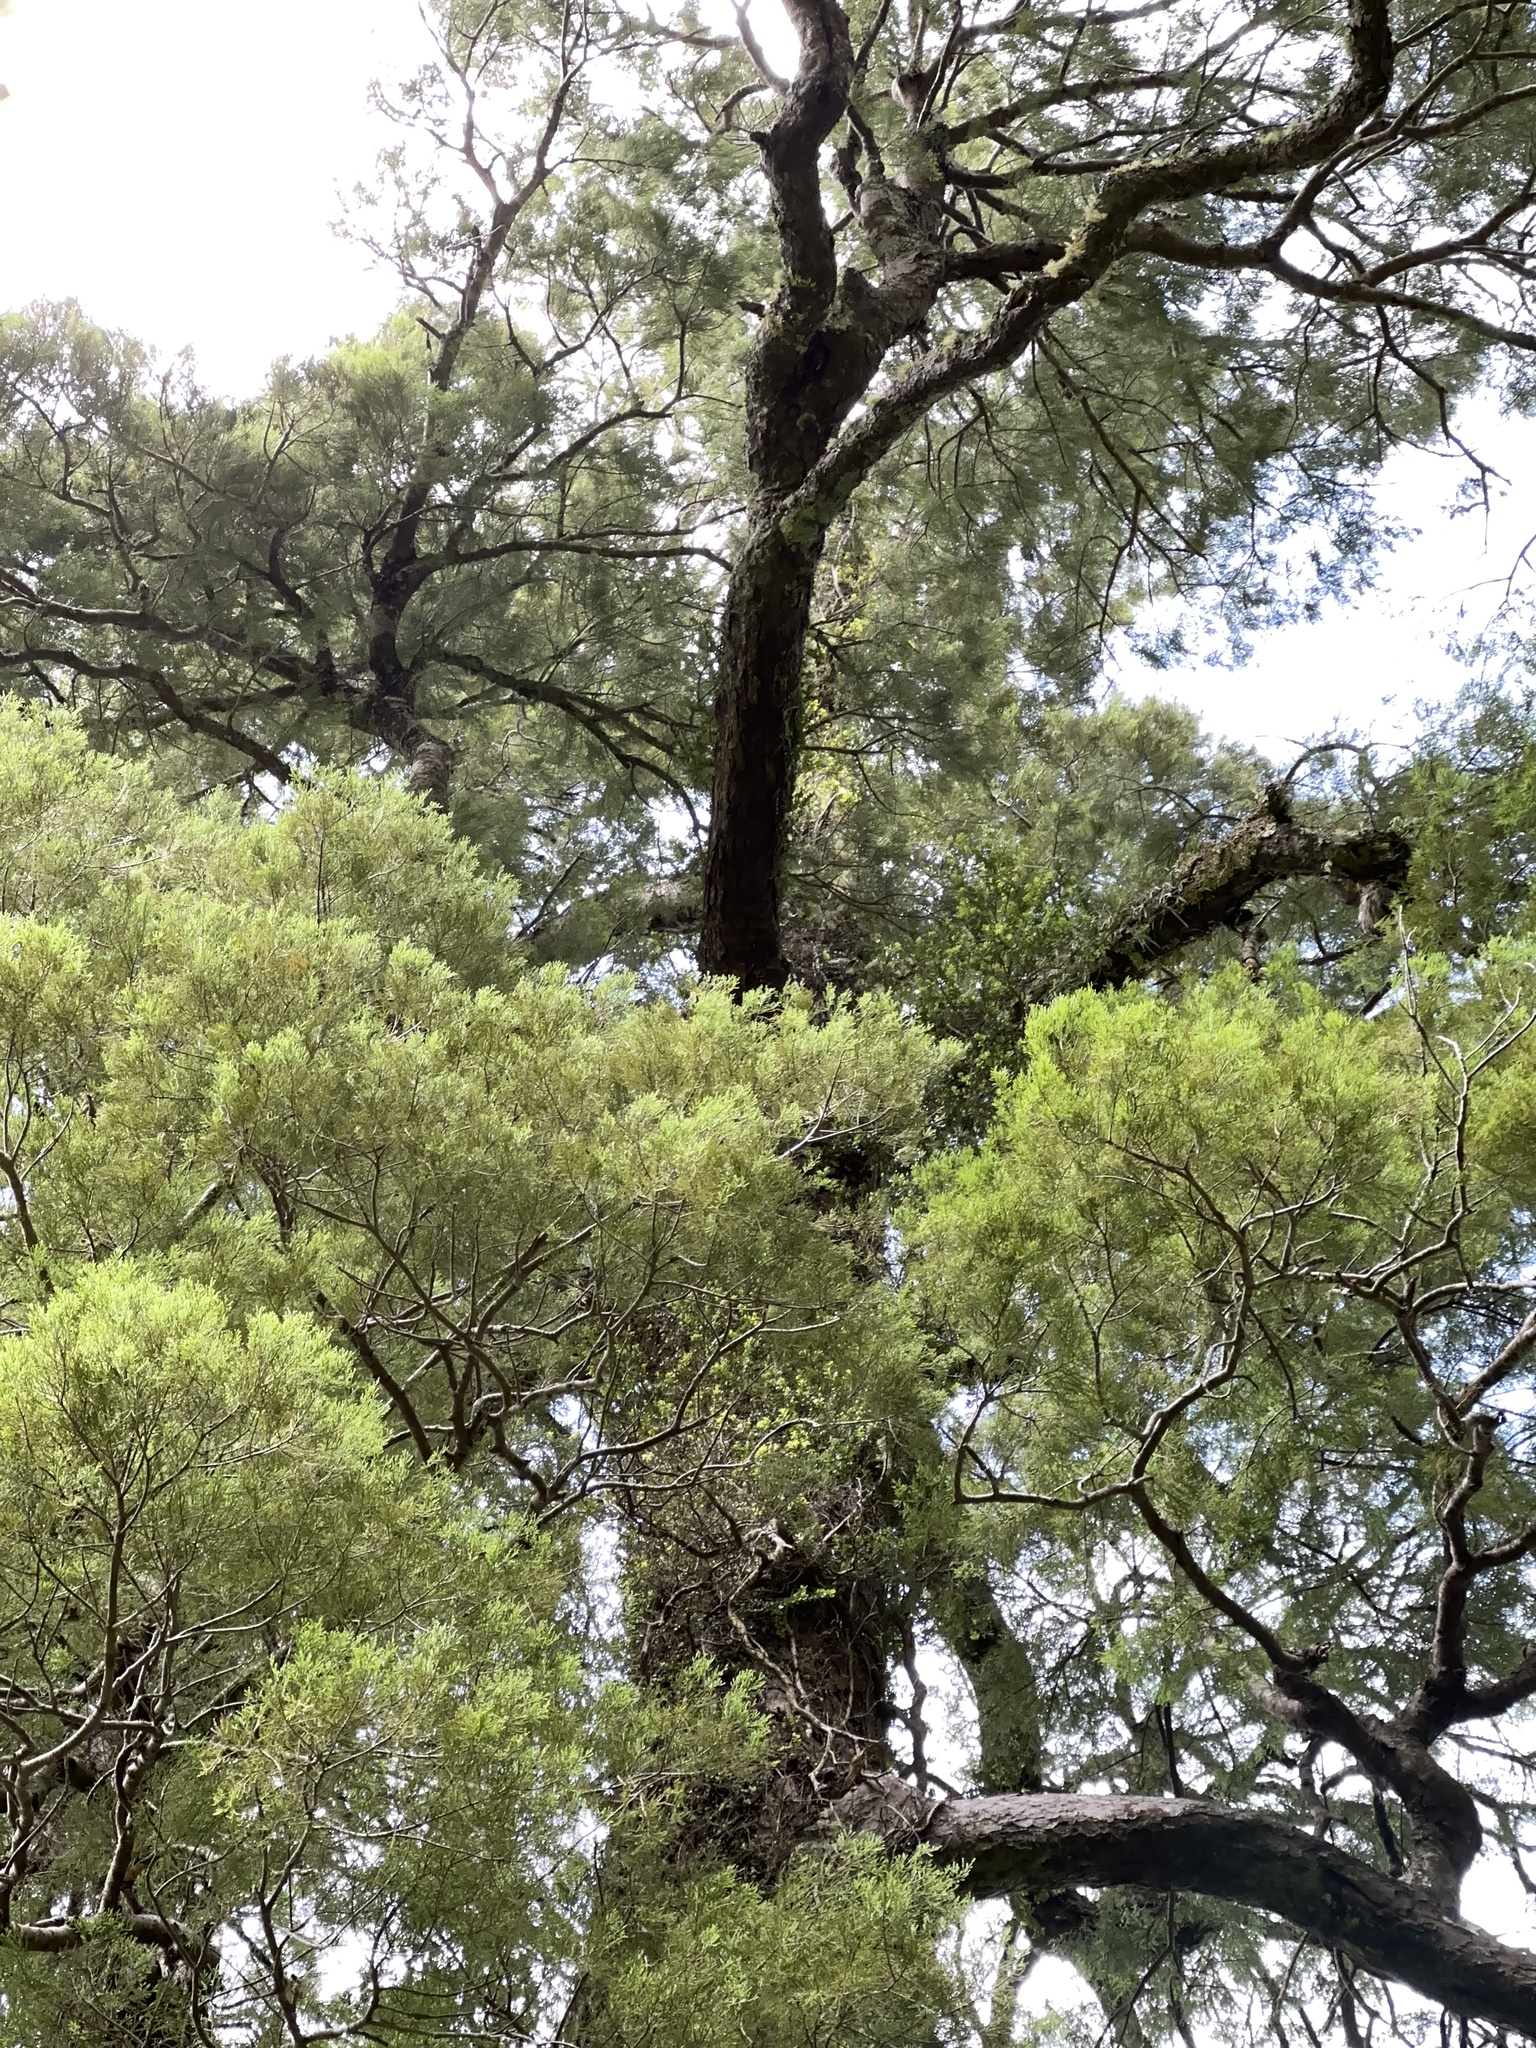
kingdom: Plantae
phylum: Tracheophyta
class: Pinopsida
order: Pinales
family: Podocarpaceae
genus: Dacrycarpus
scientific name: Dacrycarpus dacrydioides
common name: White pine
